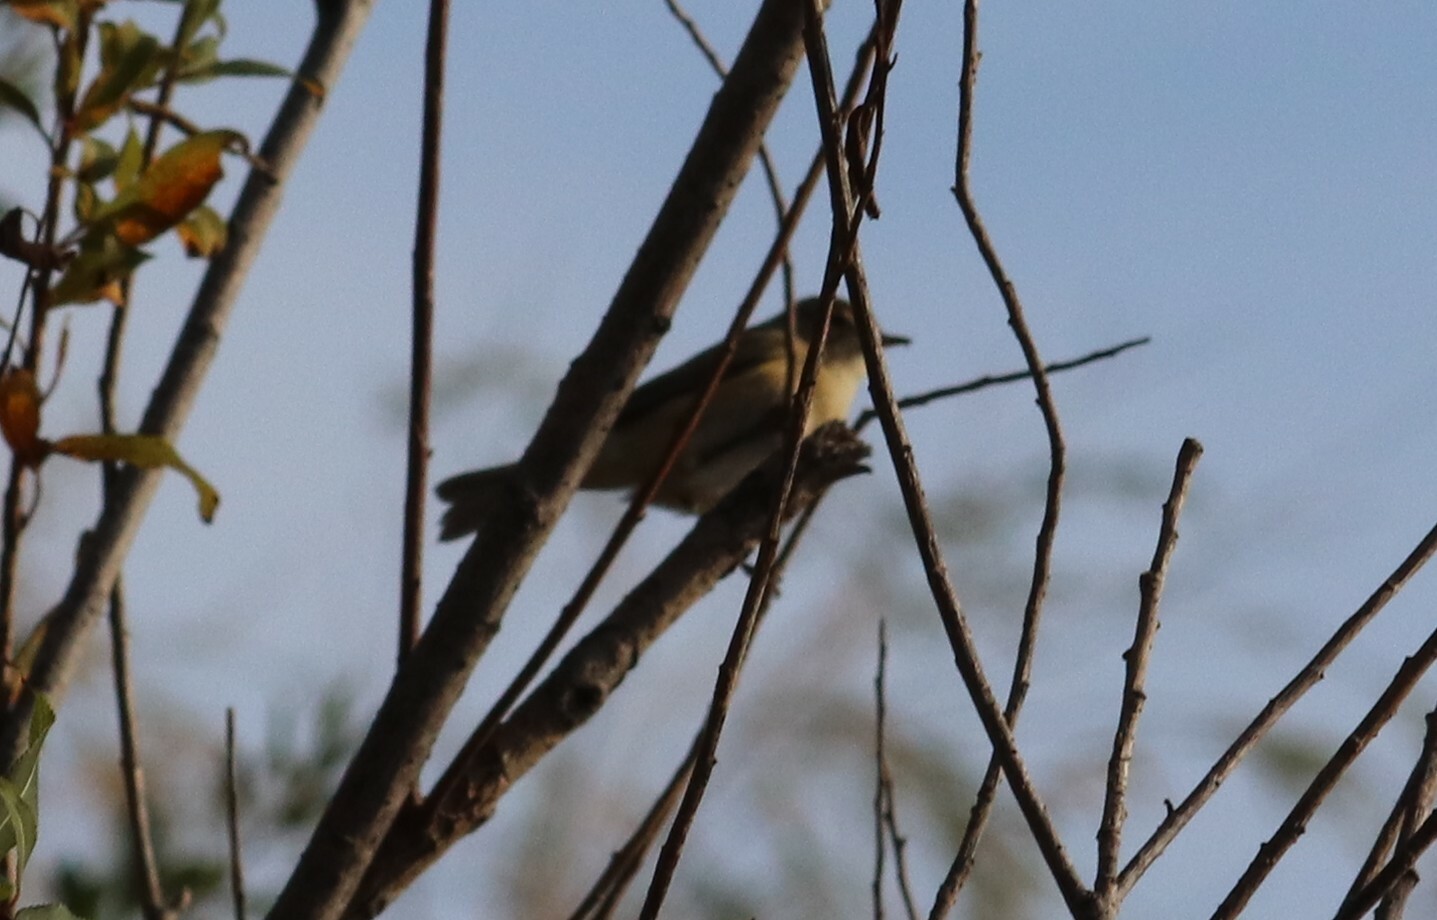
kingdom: Animalia
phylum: Chordata
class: Aves
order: Passeriformes
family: Phylloscopidae
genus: Phylloscopus
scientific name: Phylloscopus collybita
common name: Common chiffchaff
